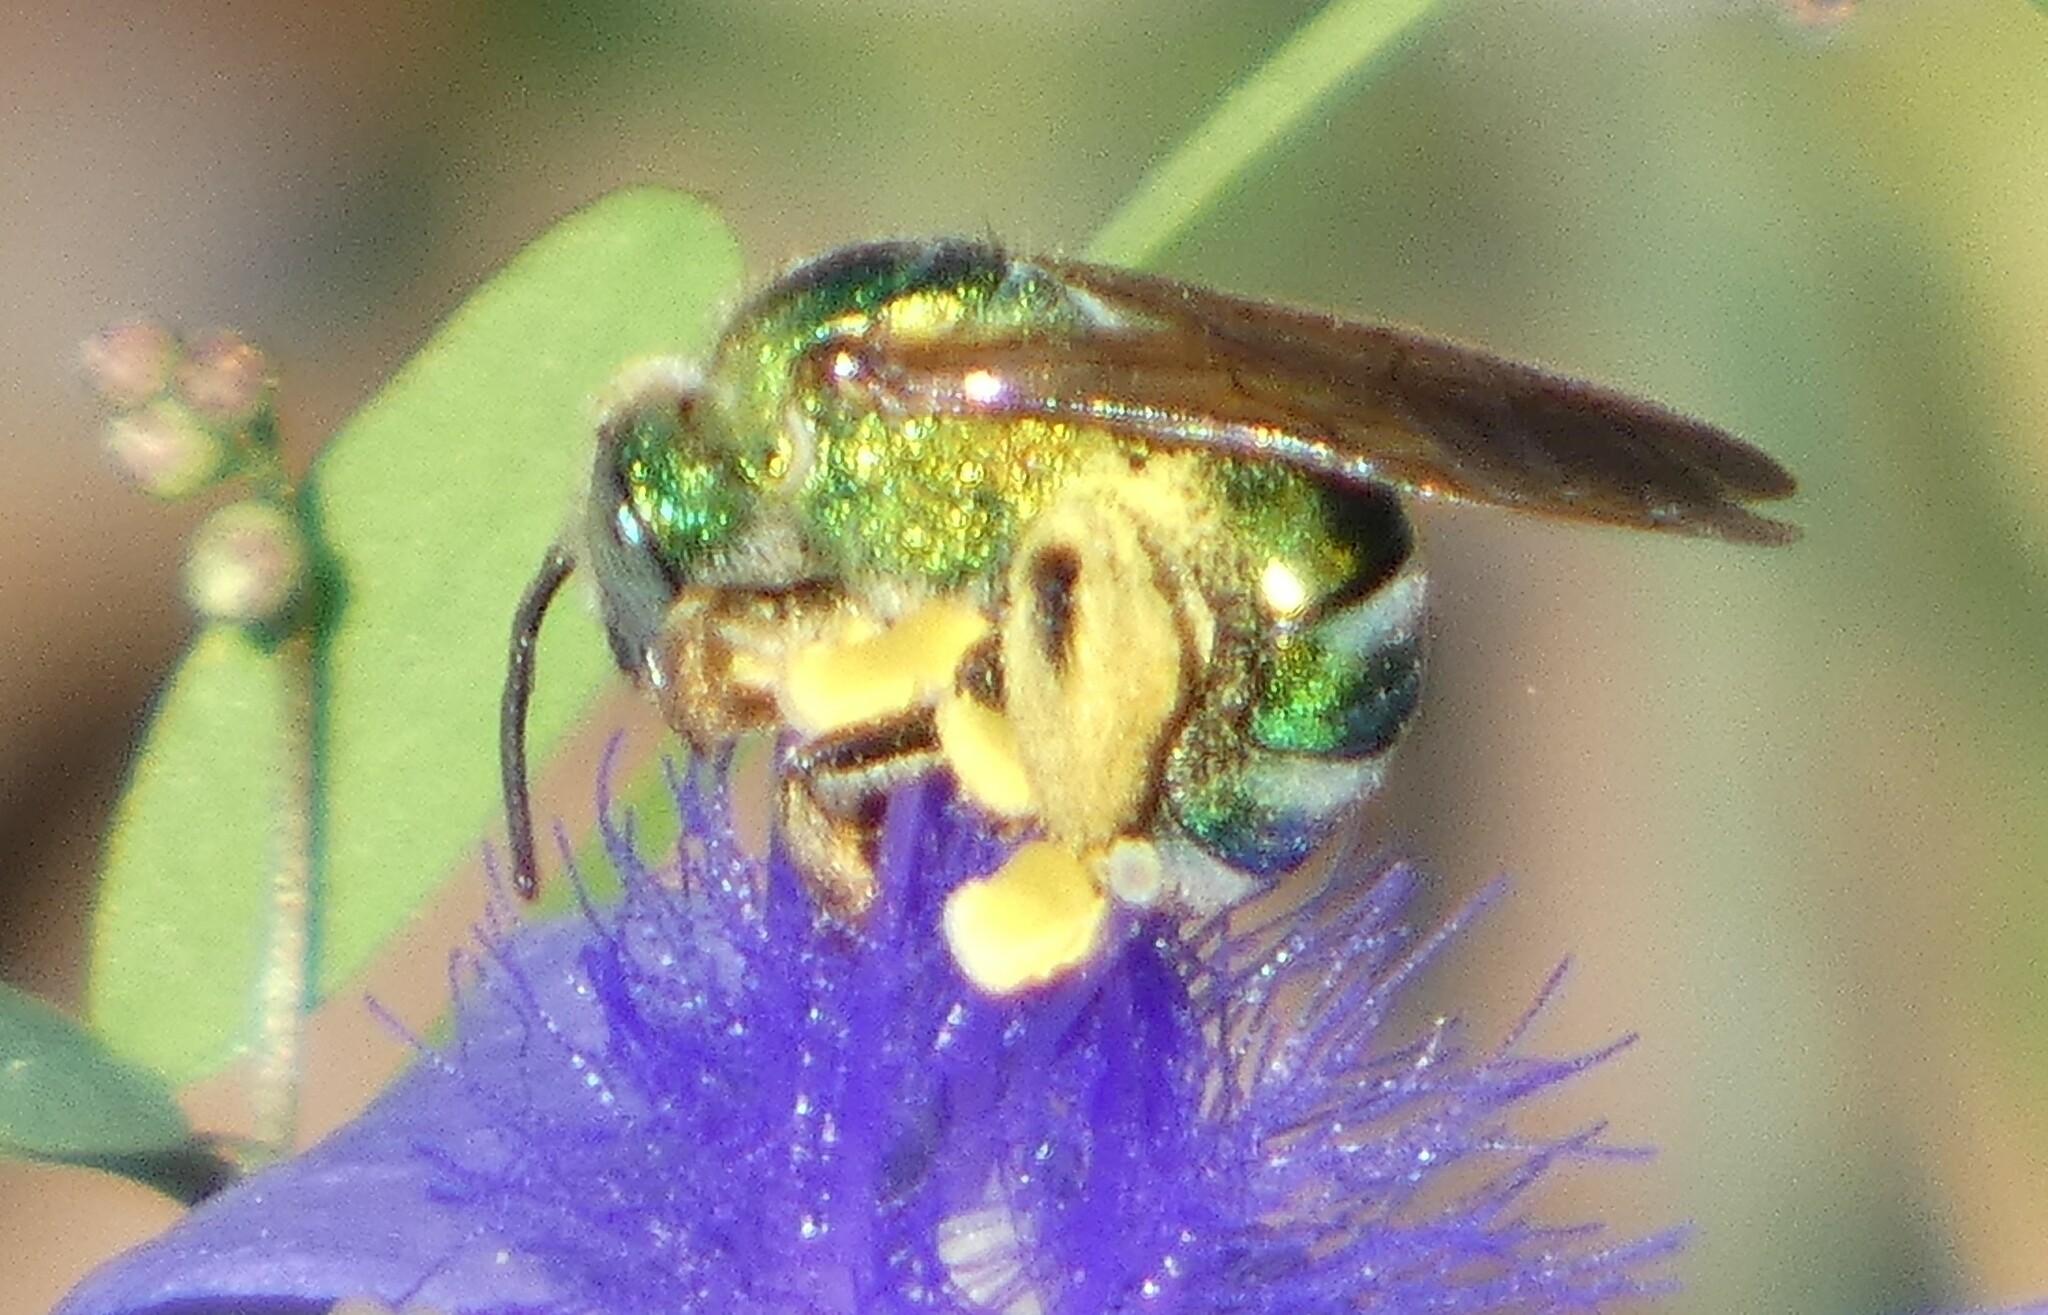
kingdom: Animalia
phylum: Arthropoda
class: Insecta
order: Hymenoptera
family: Halictidae
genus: Agapostemon
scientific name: Agapostemon splendens
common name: Brown-winged striped sweat bee
